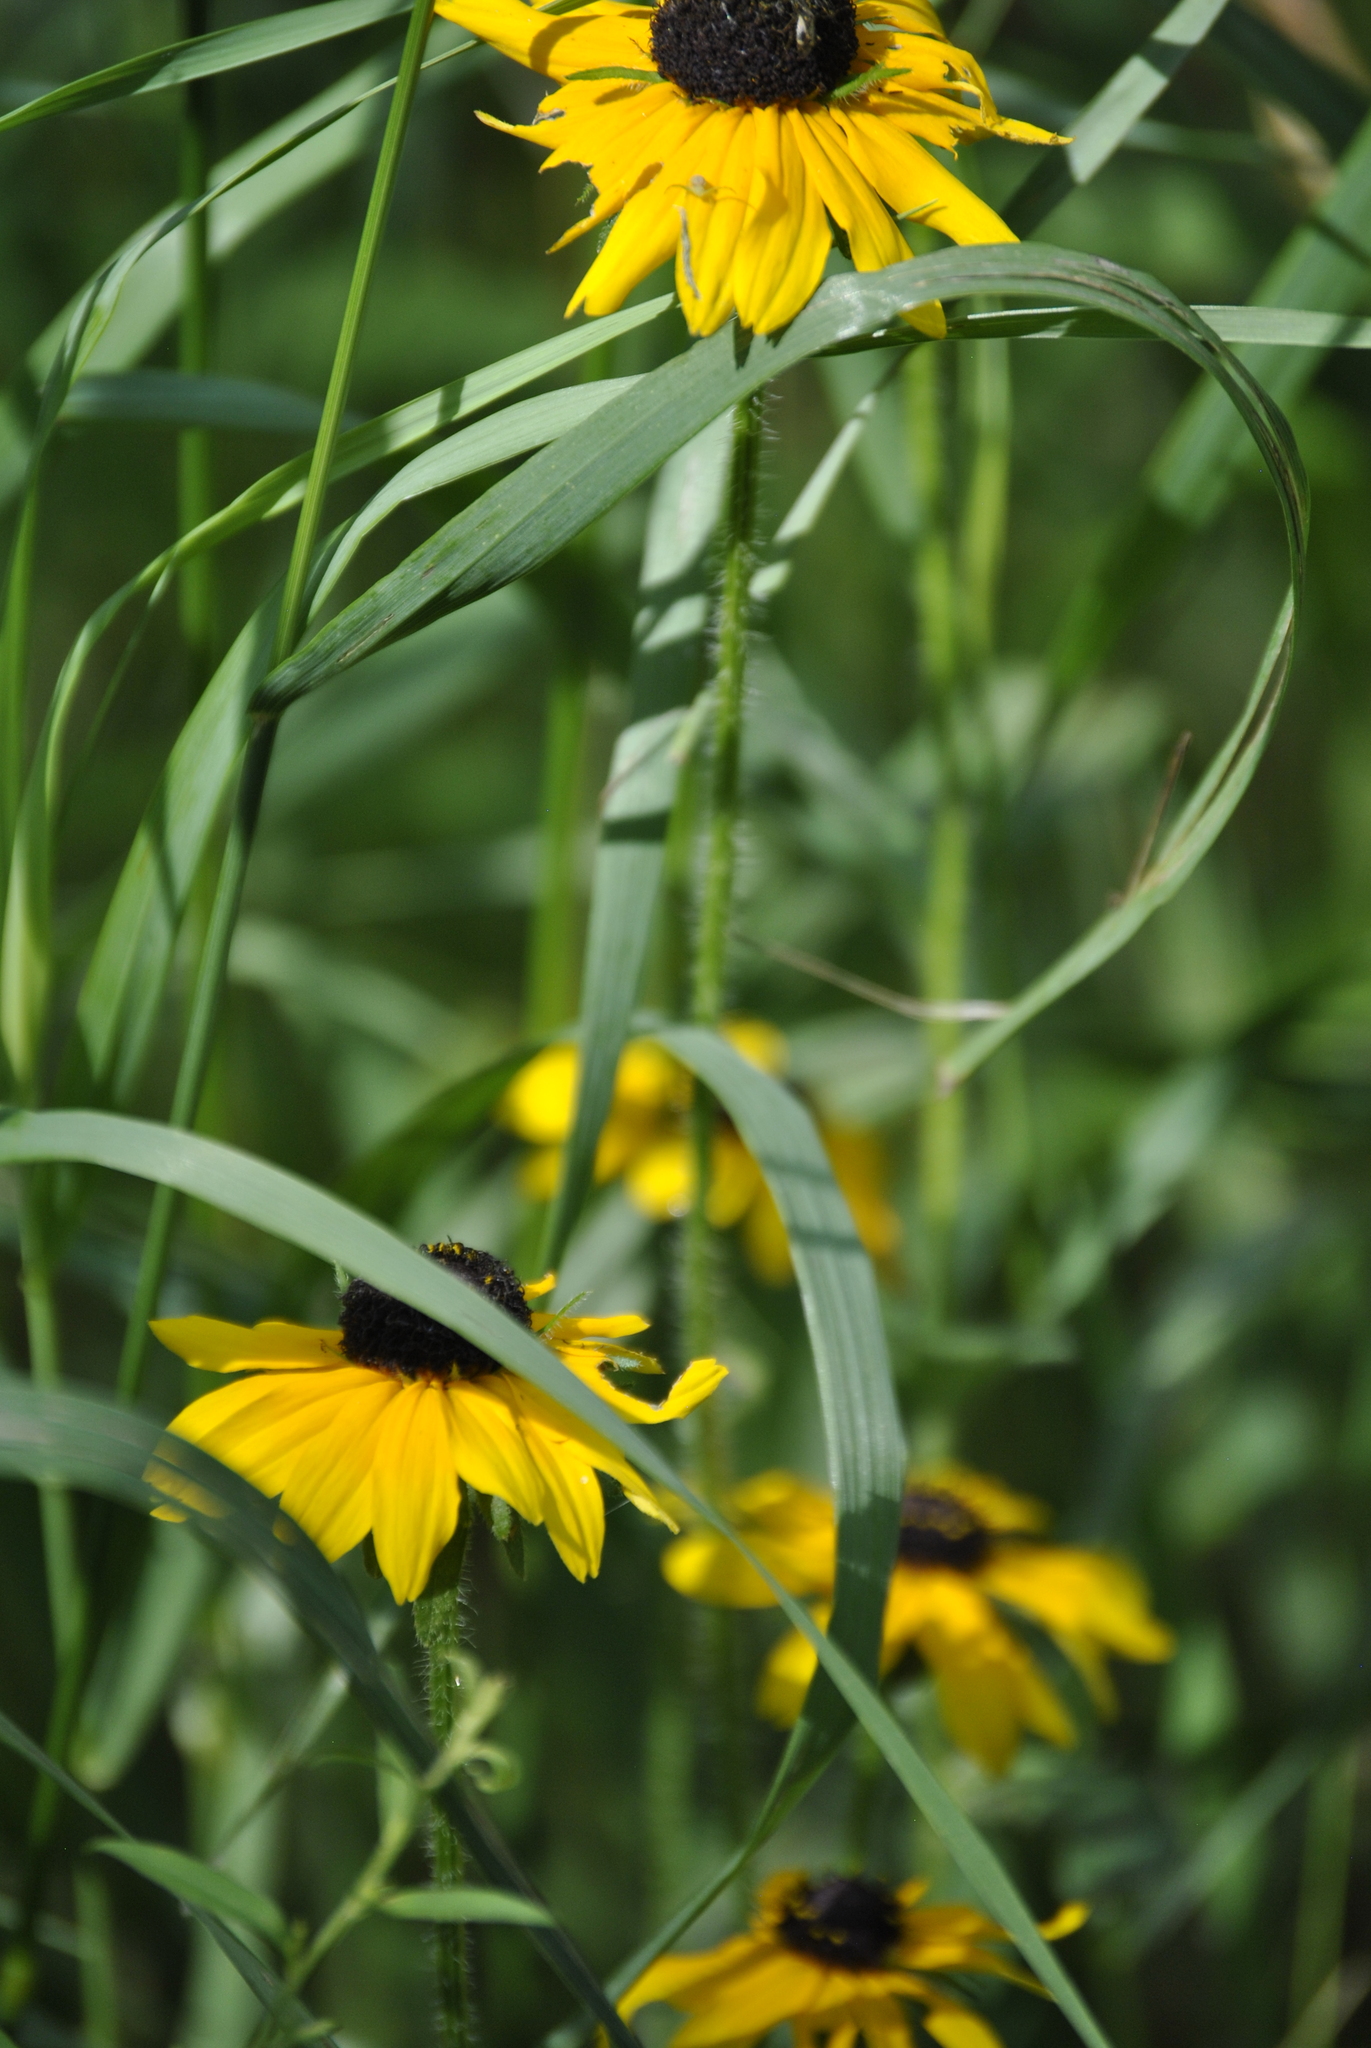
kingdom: Plantae
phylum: Tracheophyta
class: Magnoliopsida
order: Asterales
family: Asteraceae
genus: Rudbeckia
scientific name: Rudbeckia hirta
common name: Black-eyed-susan
